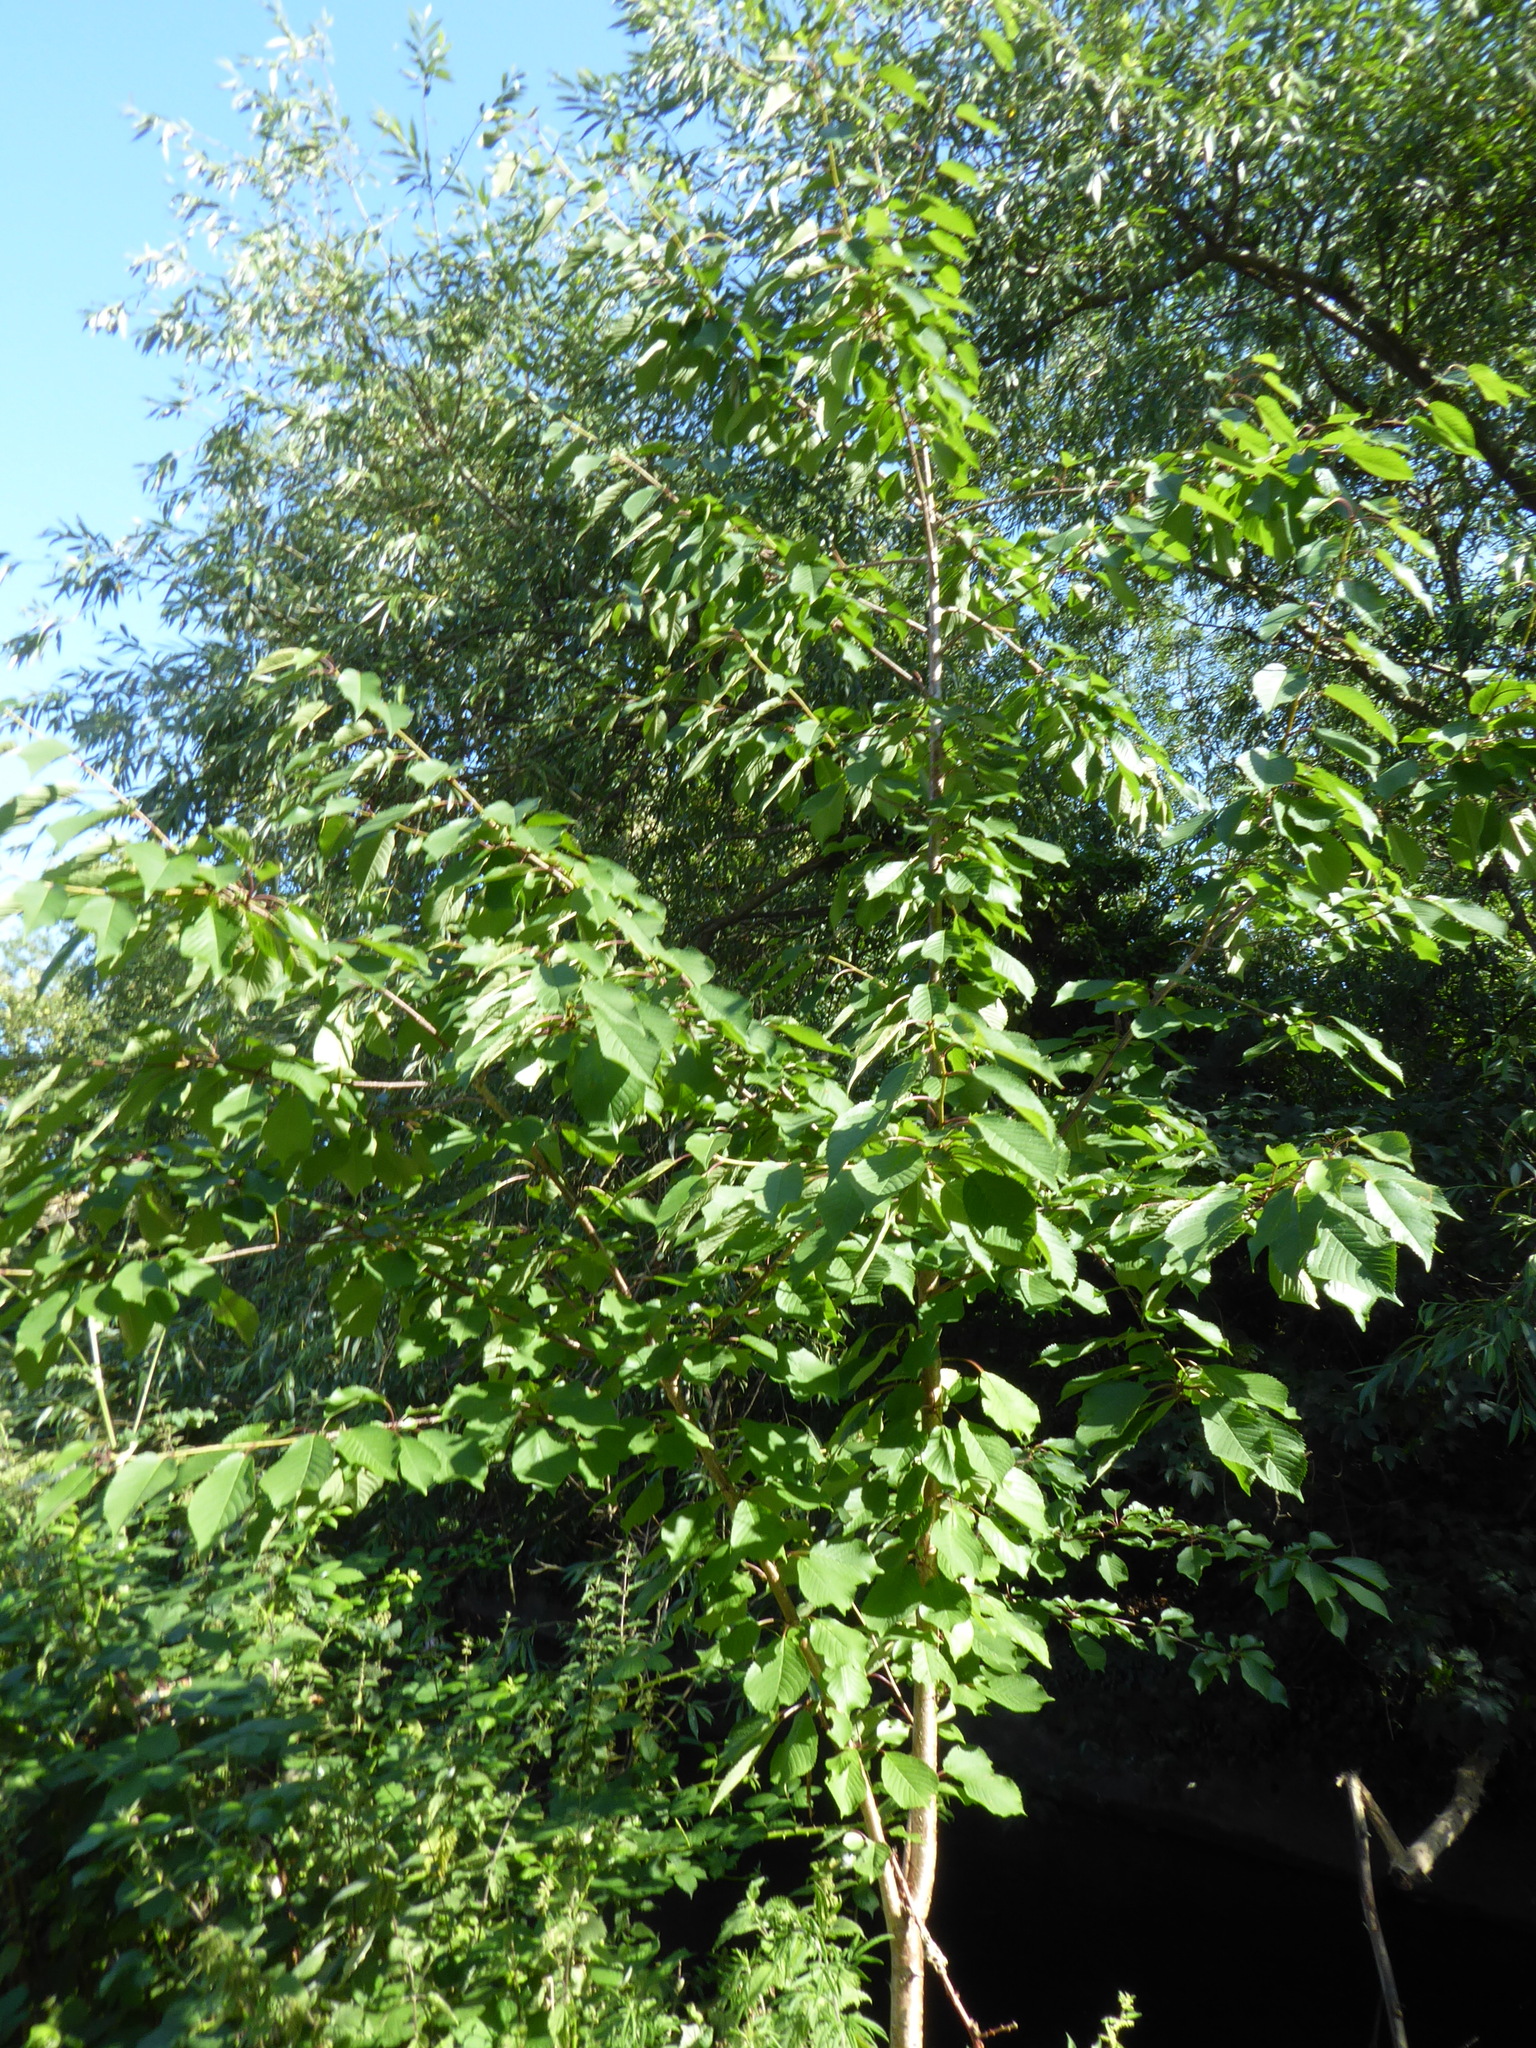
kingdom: Plantae
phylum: Tracheophyta
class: Magnoliopsida
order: Rosales
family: Rosaceae
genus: Prunus
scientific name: Prunus avium
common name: Sweet cherry
